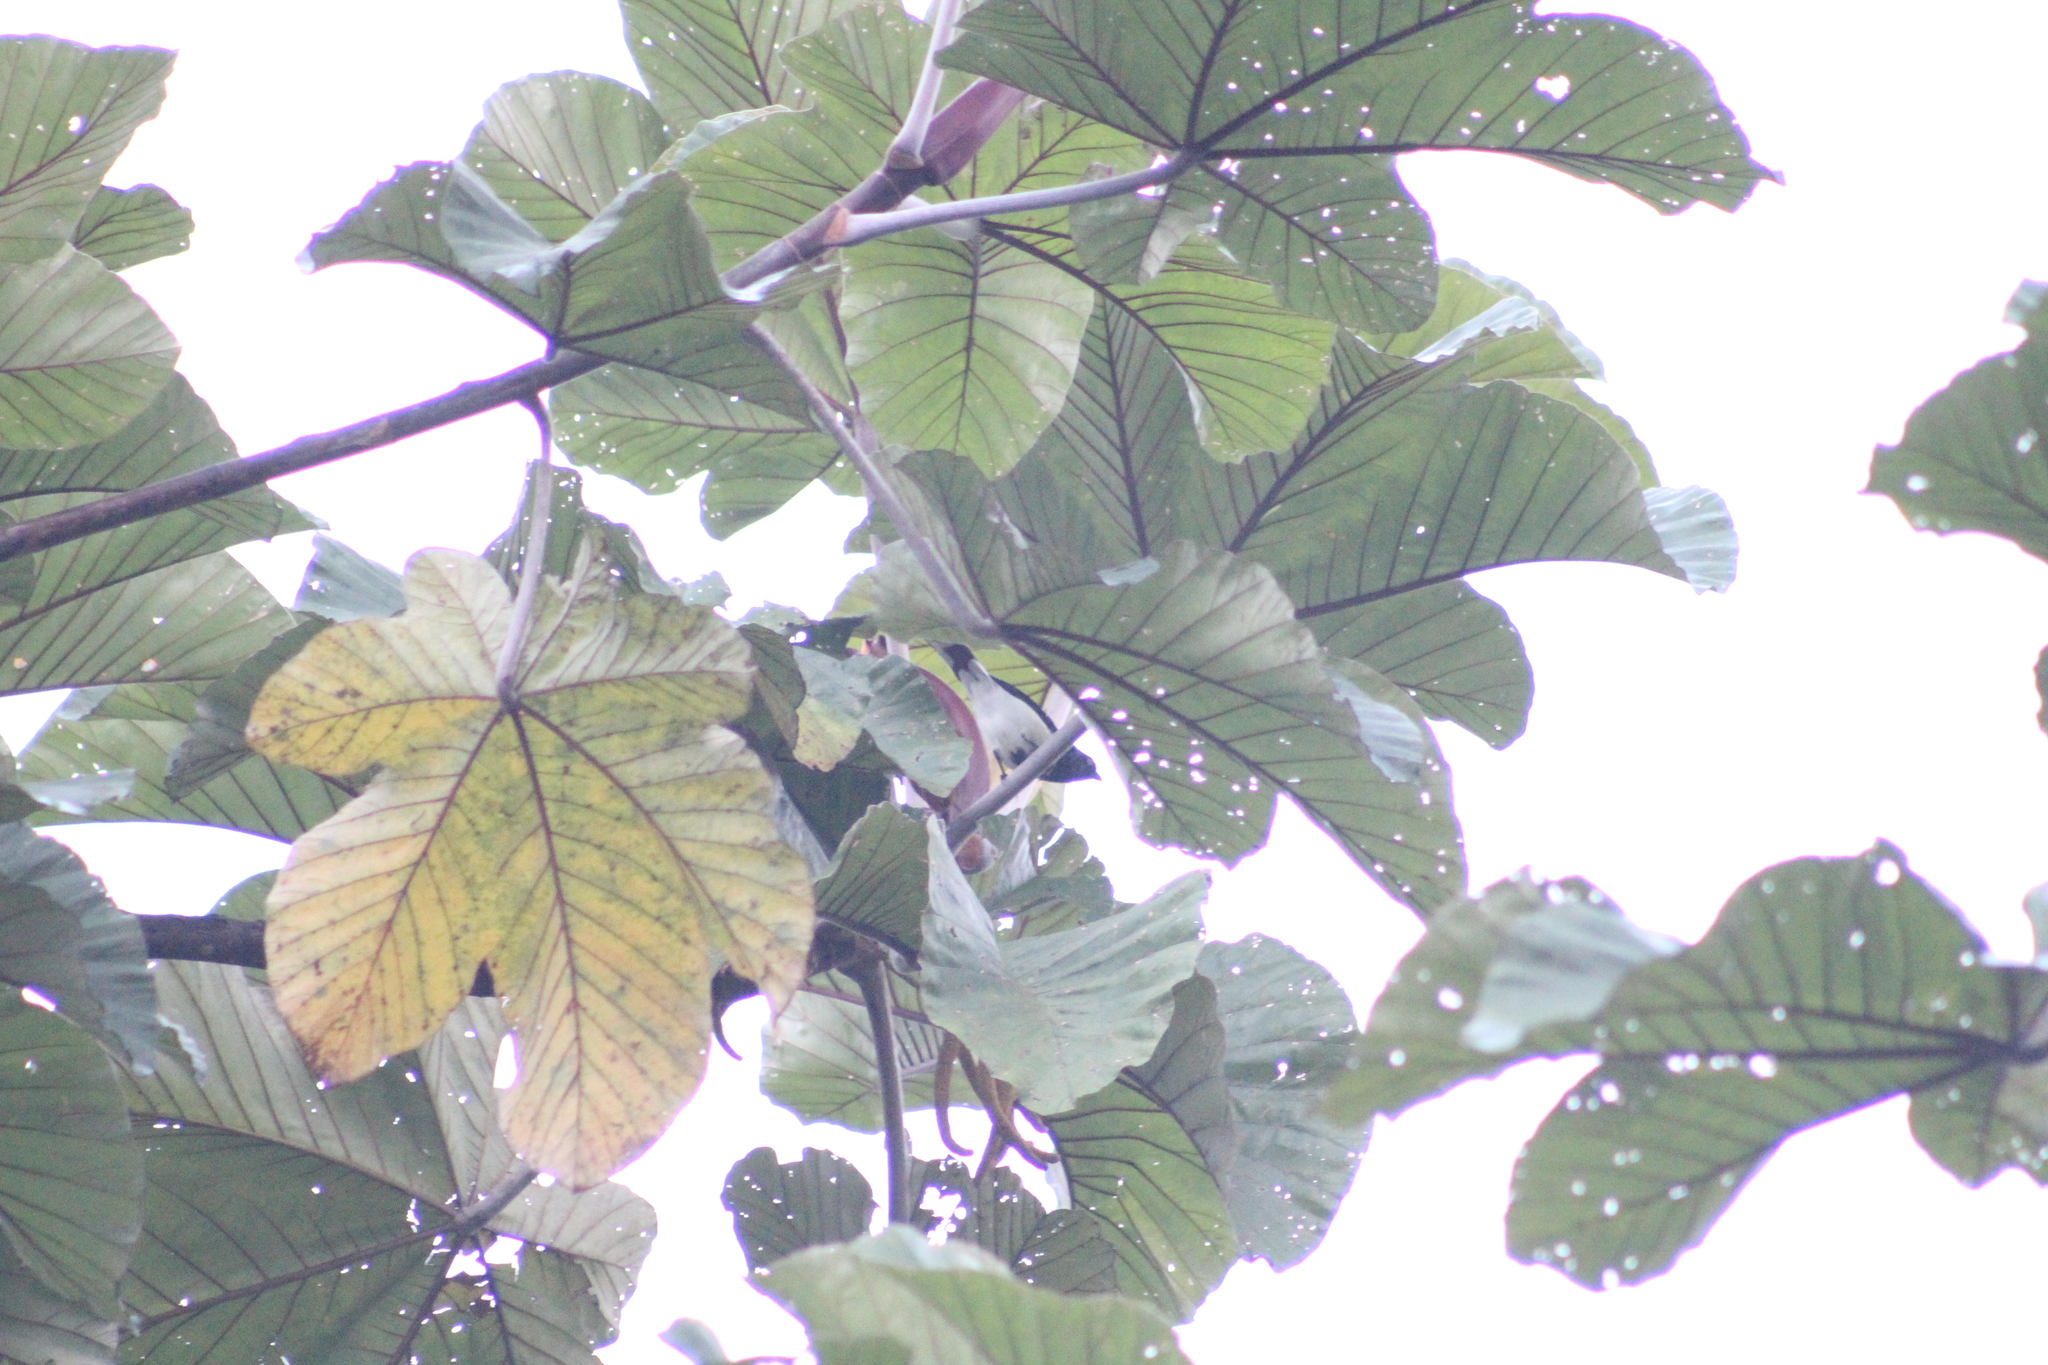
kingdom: Animalia
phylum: Chordata
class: Aves
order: Passeriformes
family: Thraupidae
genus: Cissopis
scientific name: Cissopis leverianus
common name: Magpie tanager
